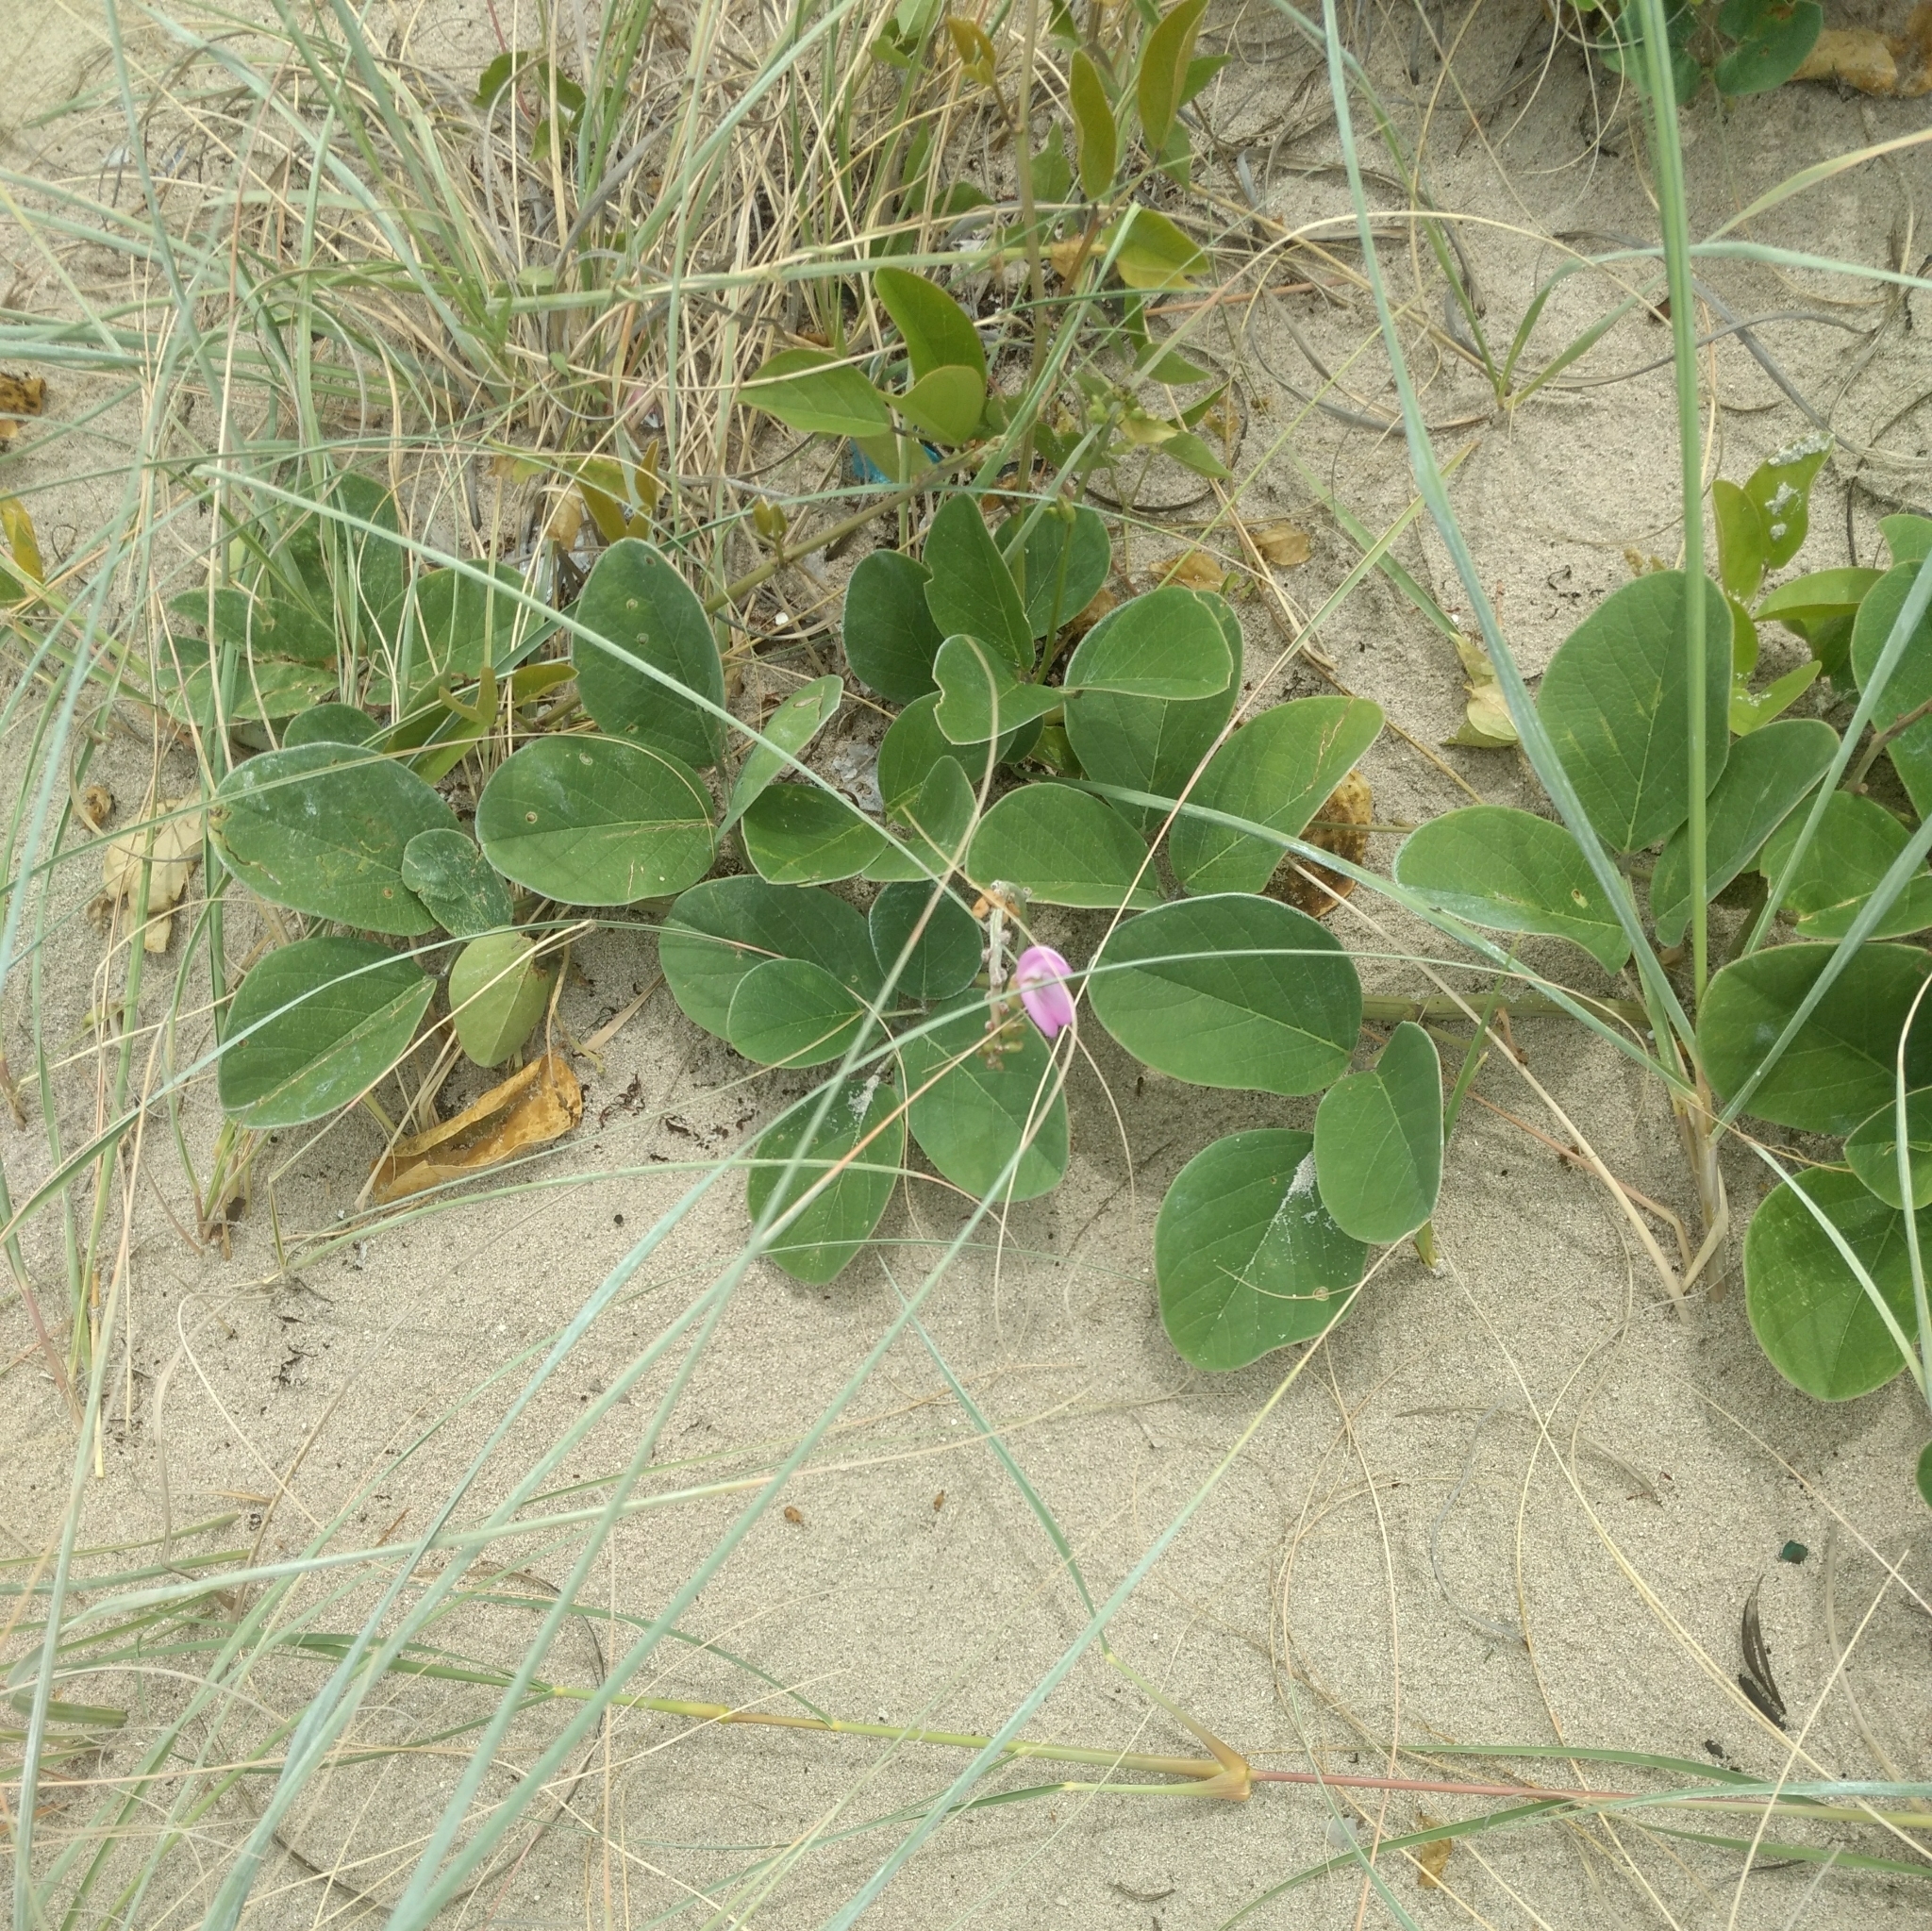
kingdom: Plantae
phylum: Tracheophyta
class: Magnoliopsida
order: Fabales
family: Fabaceae
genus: Canavalia
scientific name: Canavalia rosea
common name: Beach-bean
